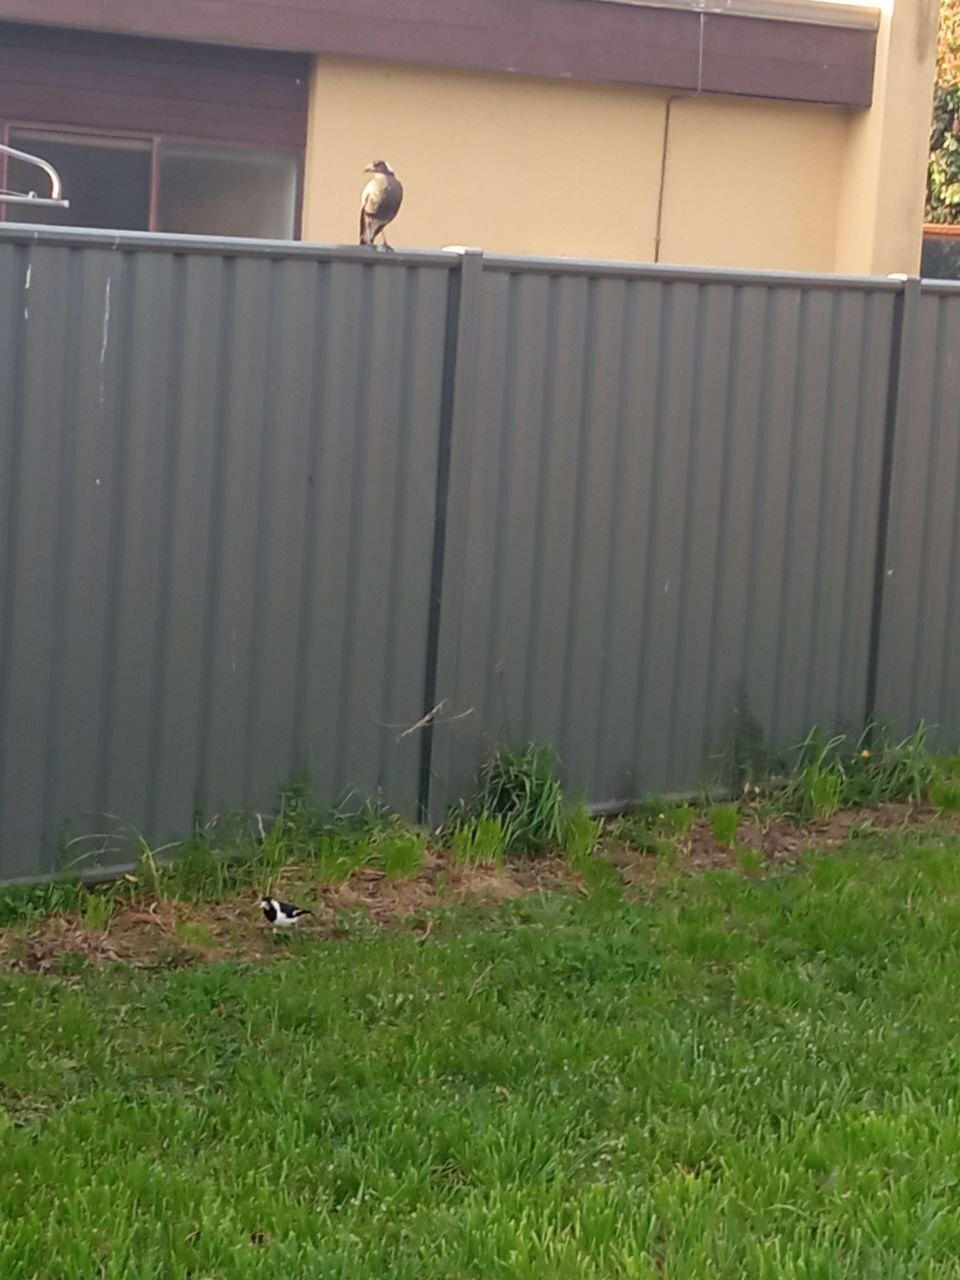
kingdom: Animalia
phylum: Chordata
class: Aves
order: Passeriformes
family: Monarchidae
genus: Grallina
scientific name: Grallina cyanoleuca
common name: Magpie-lark
